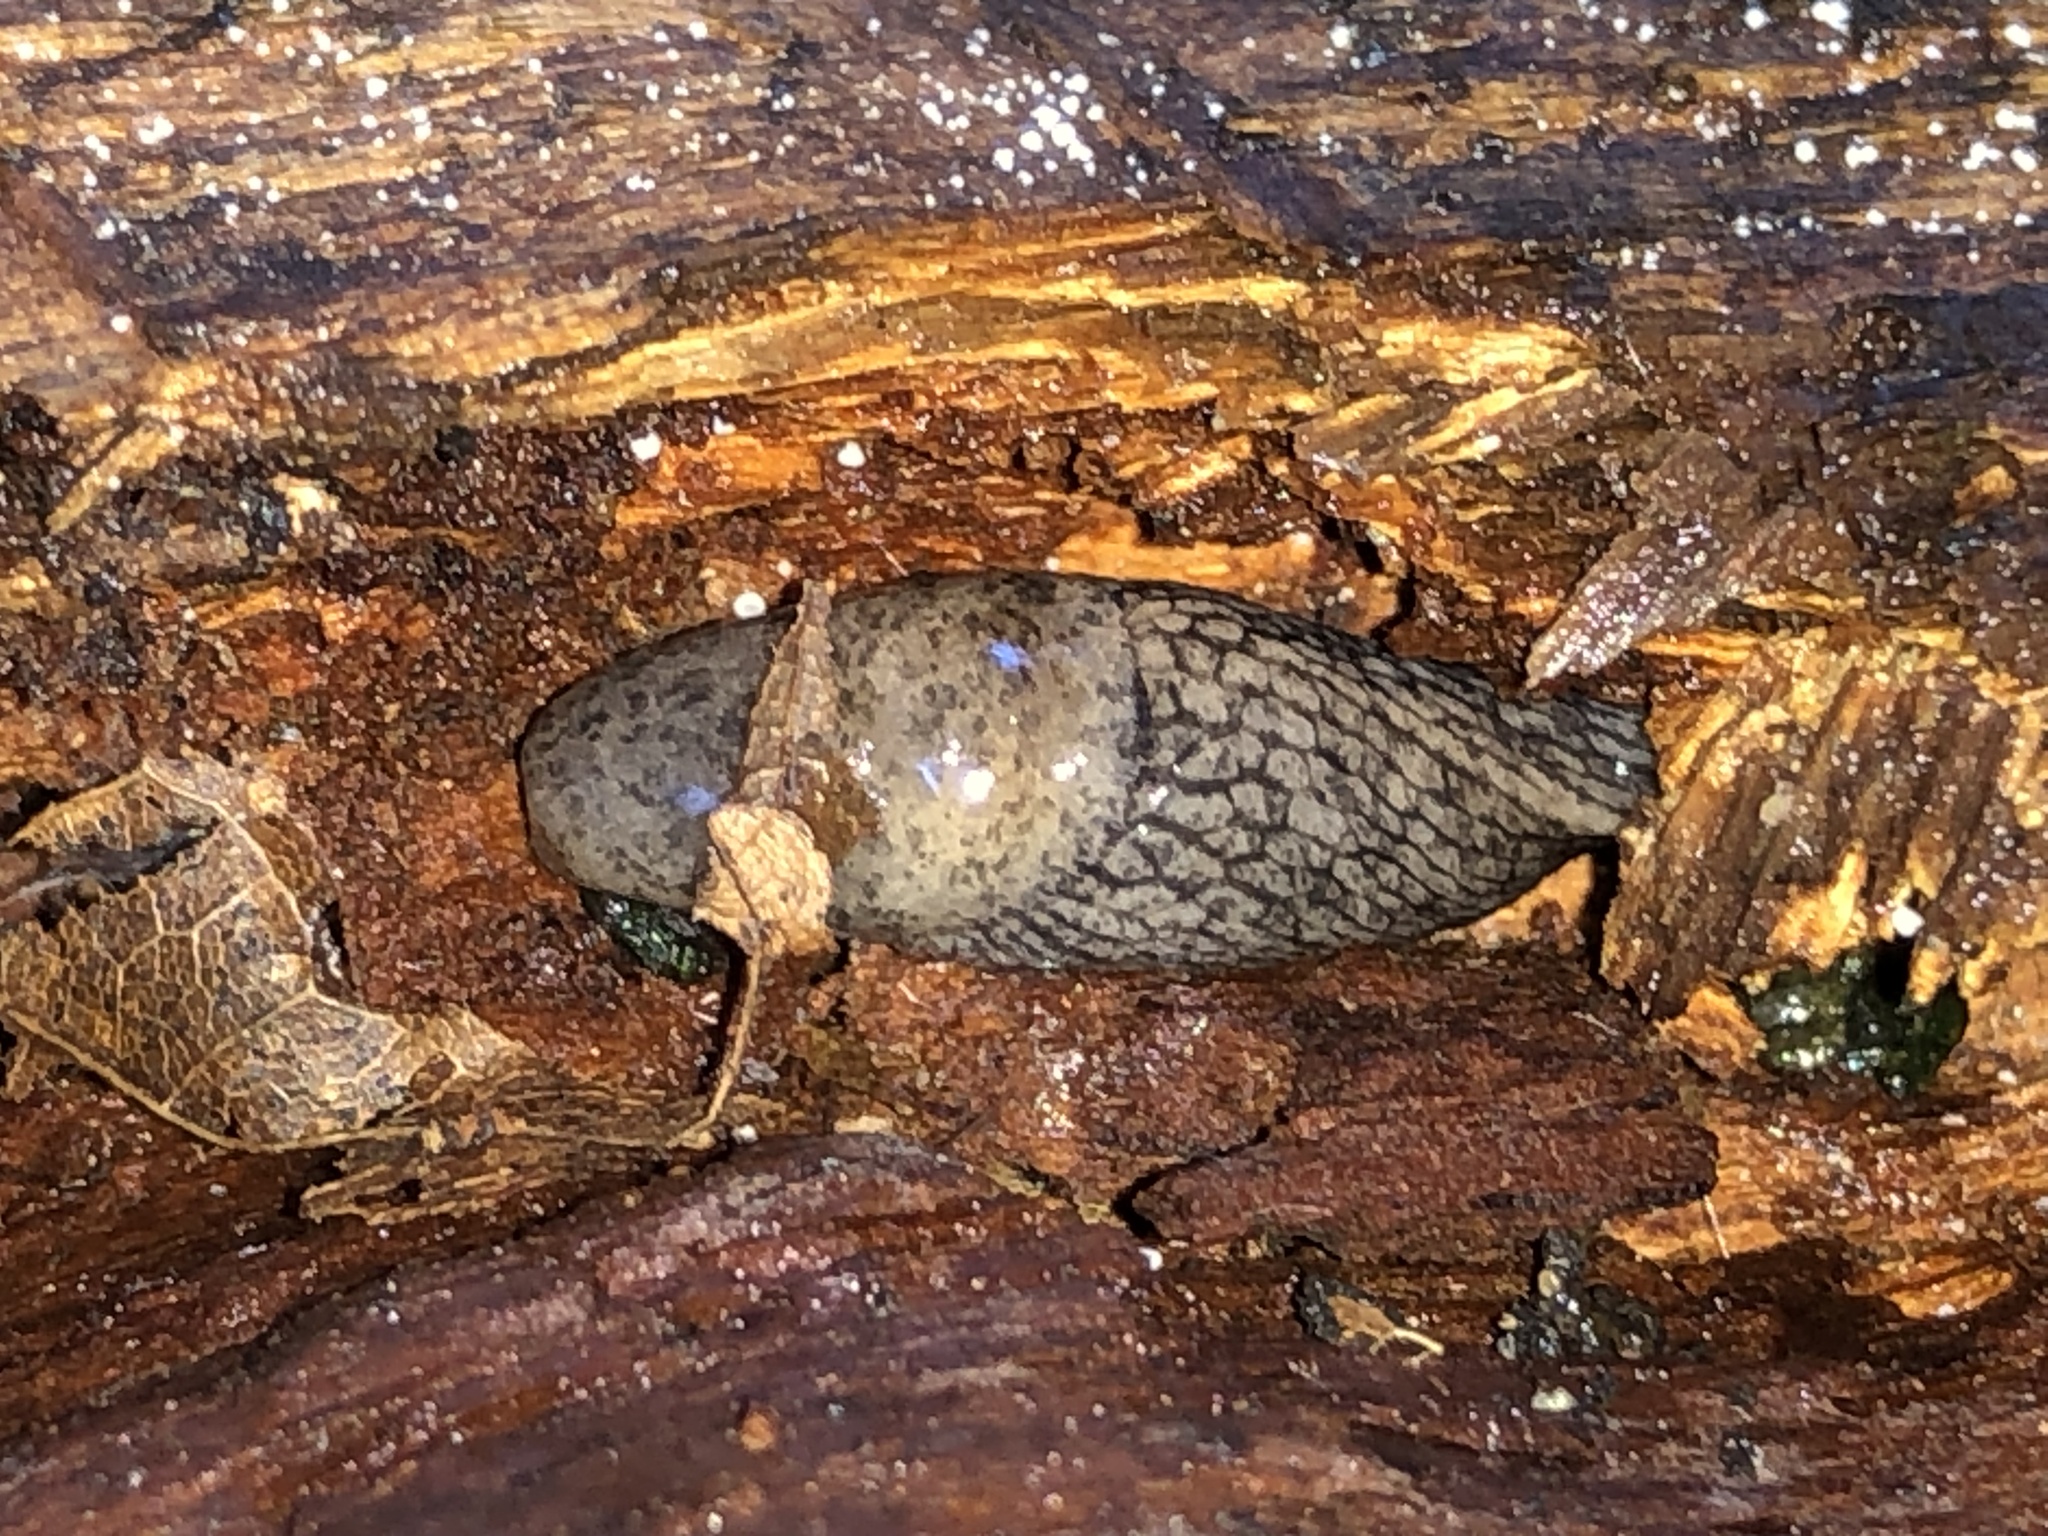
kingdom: Animalia
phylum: Mollusca
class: Gastropoda
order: Stylommatophora
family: Agriolimacidae
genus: Deroceras
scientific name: Deroceras reticulatum
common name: Gray field slug
